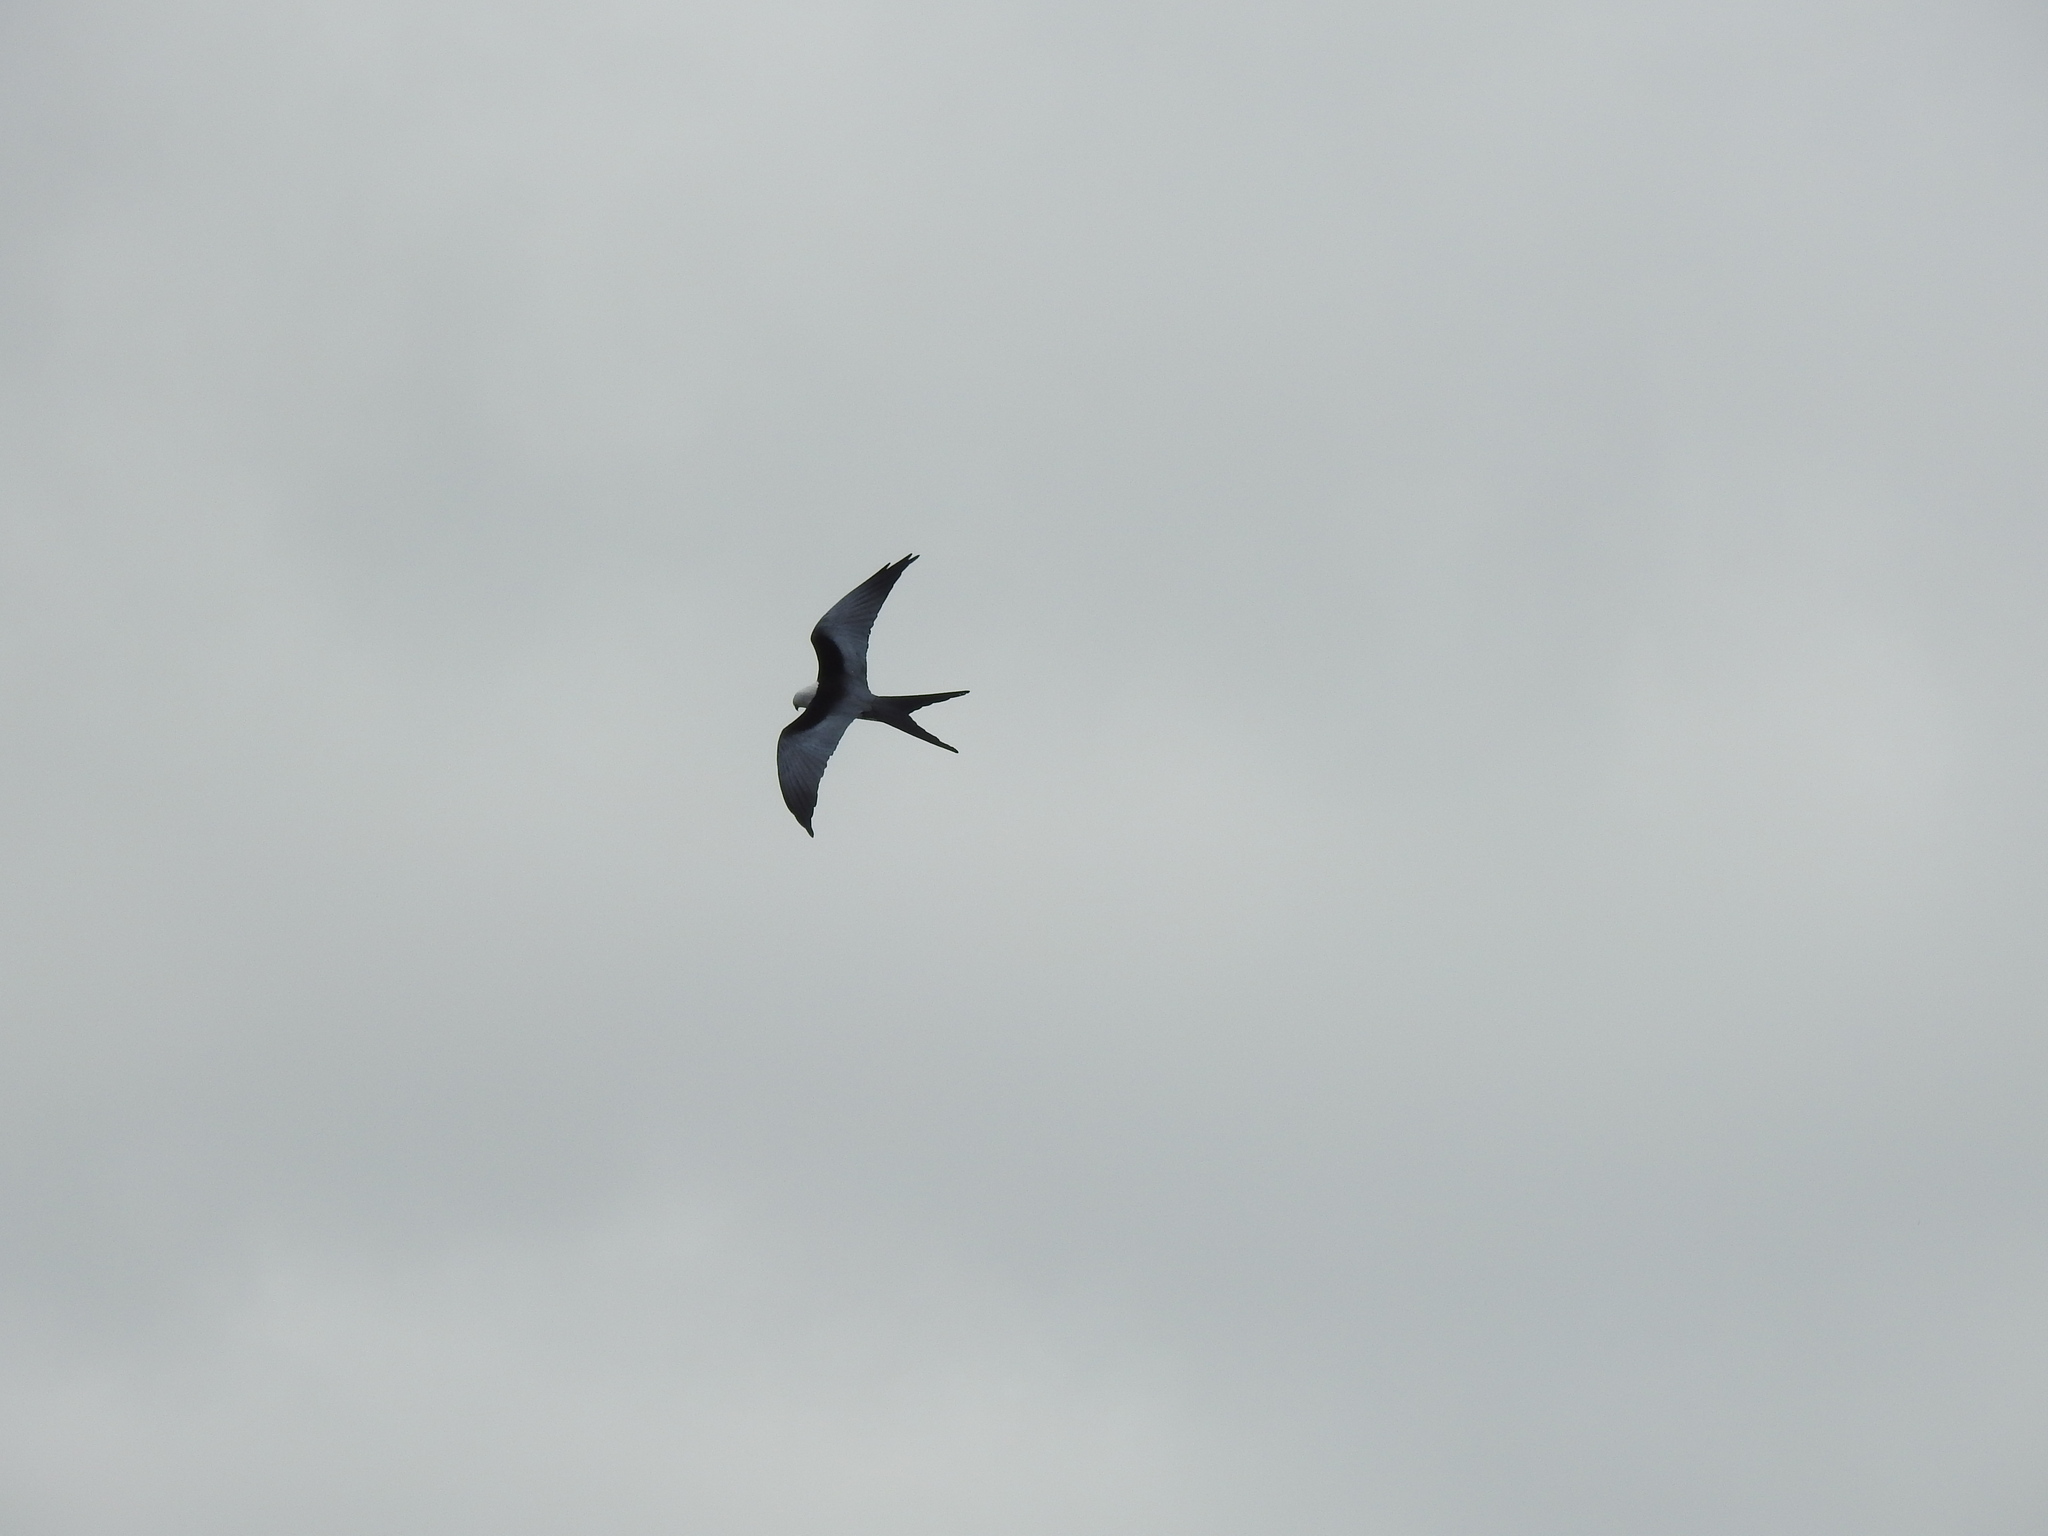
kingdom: Animalia
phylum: Chordata
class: Aves
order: Accipitriformes
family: Accipitridae
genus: Elanoides
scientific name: Elanoides forficatus
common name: Swallow-tailed kite
